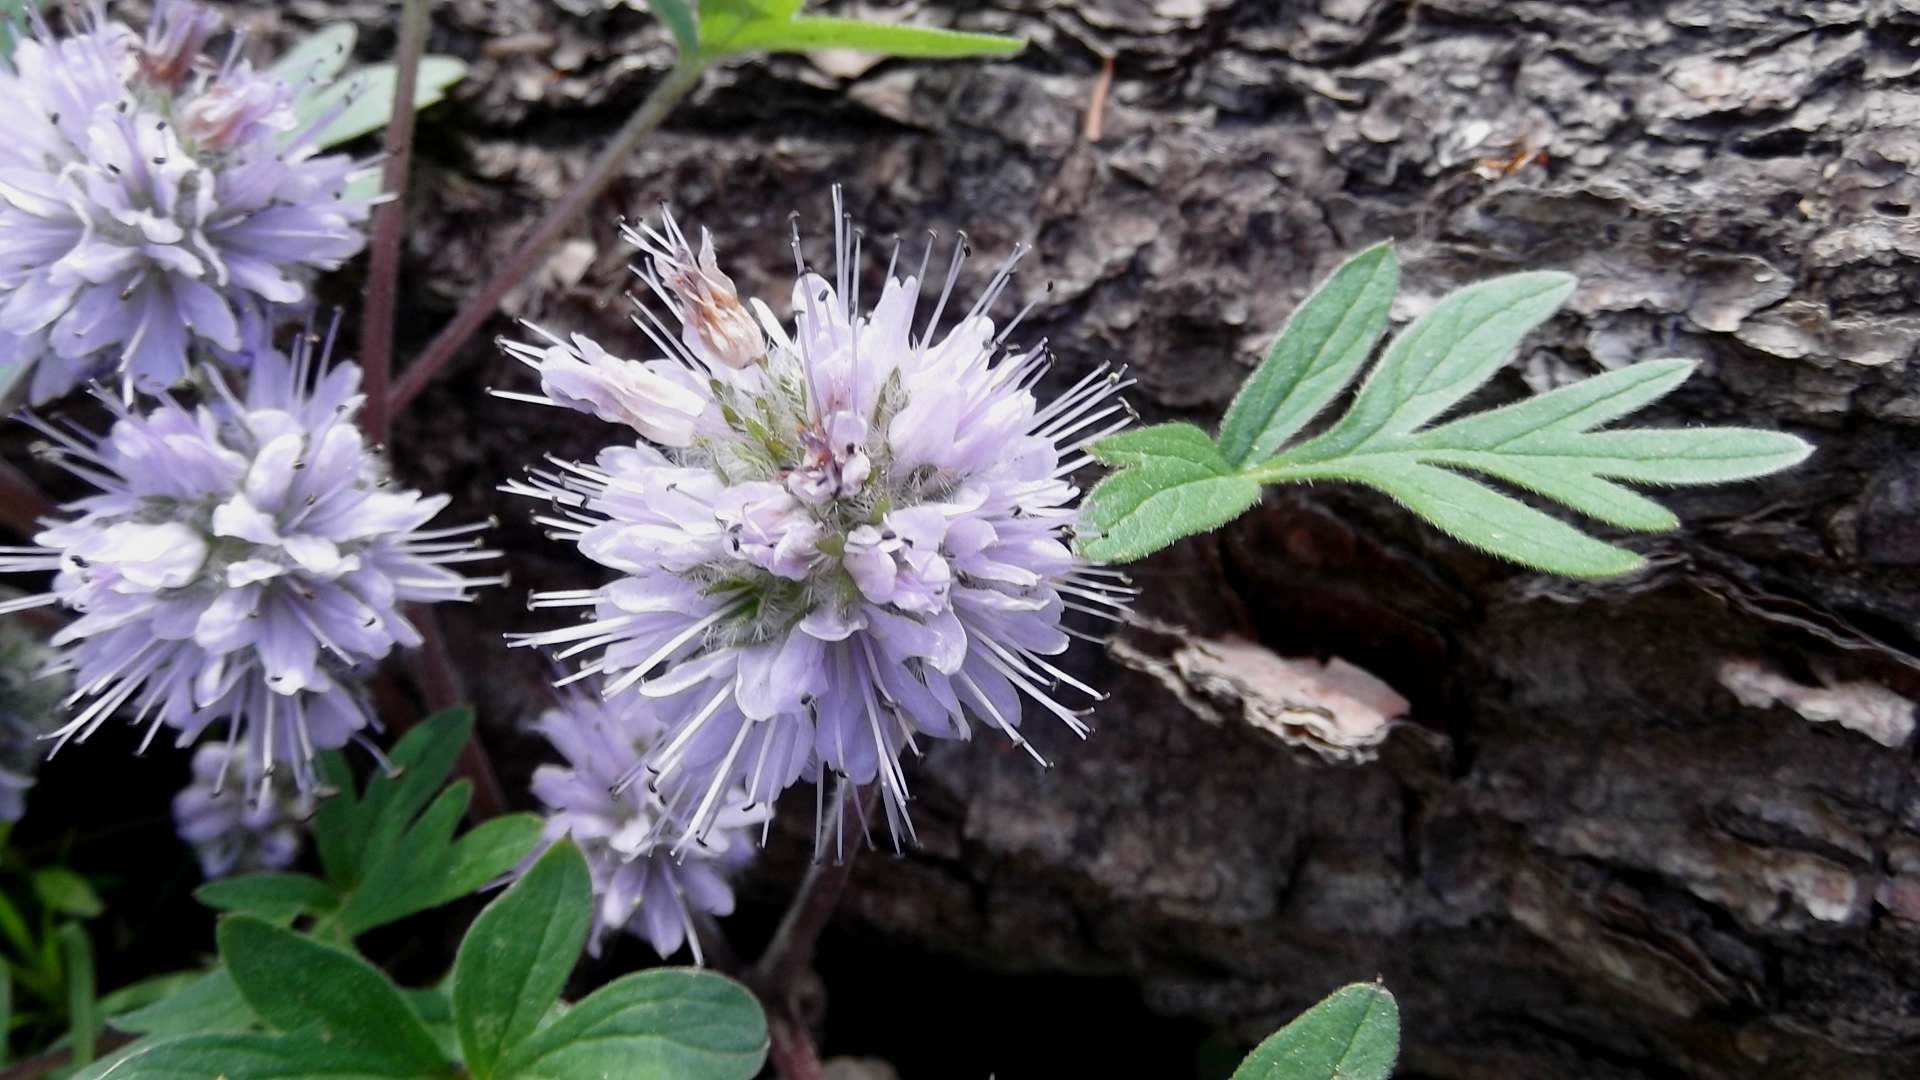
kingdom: Plantae
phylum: Tracheophyta
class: Magnoliopsida
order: Boraginales
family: Hydrophyllaceae
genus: Hydrophyllum
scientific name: Hydrophyllum capitatum
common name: Woollen-breeches
